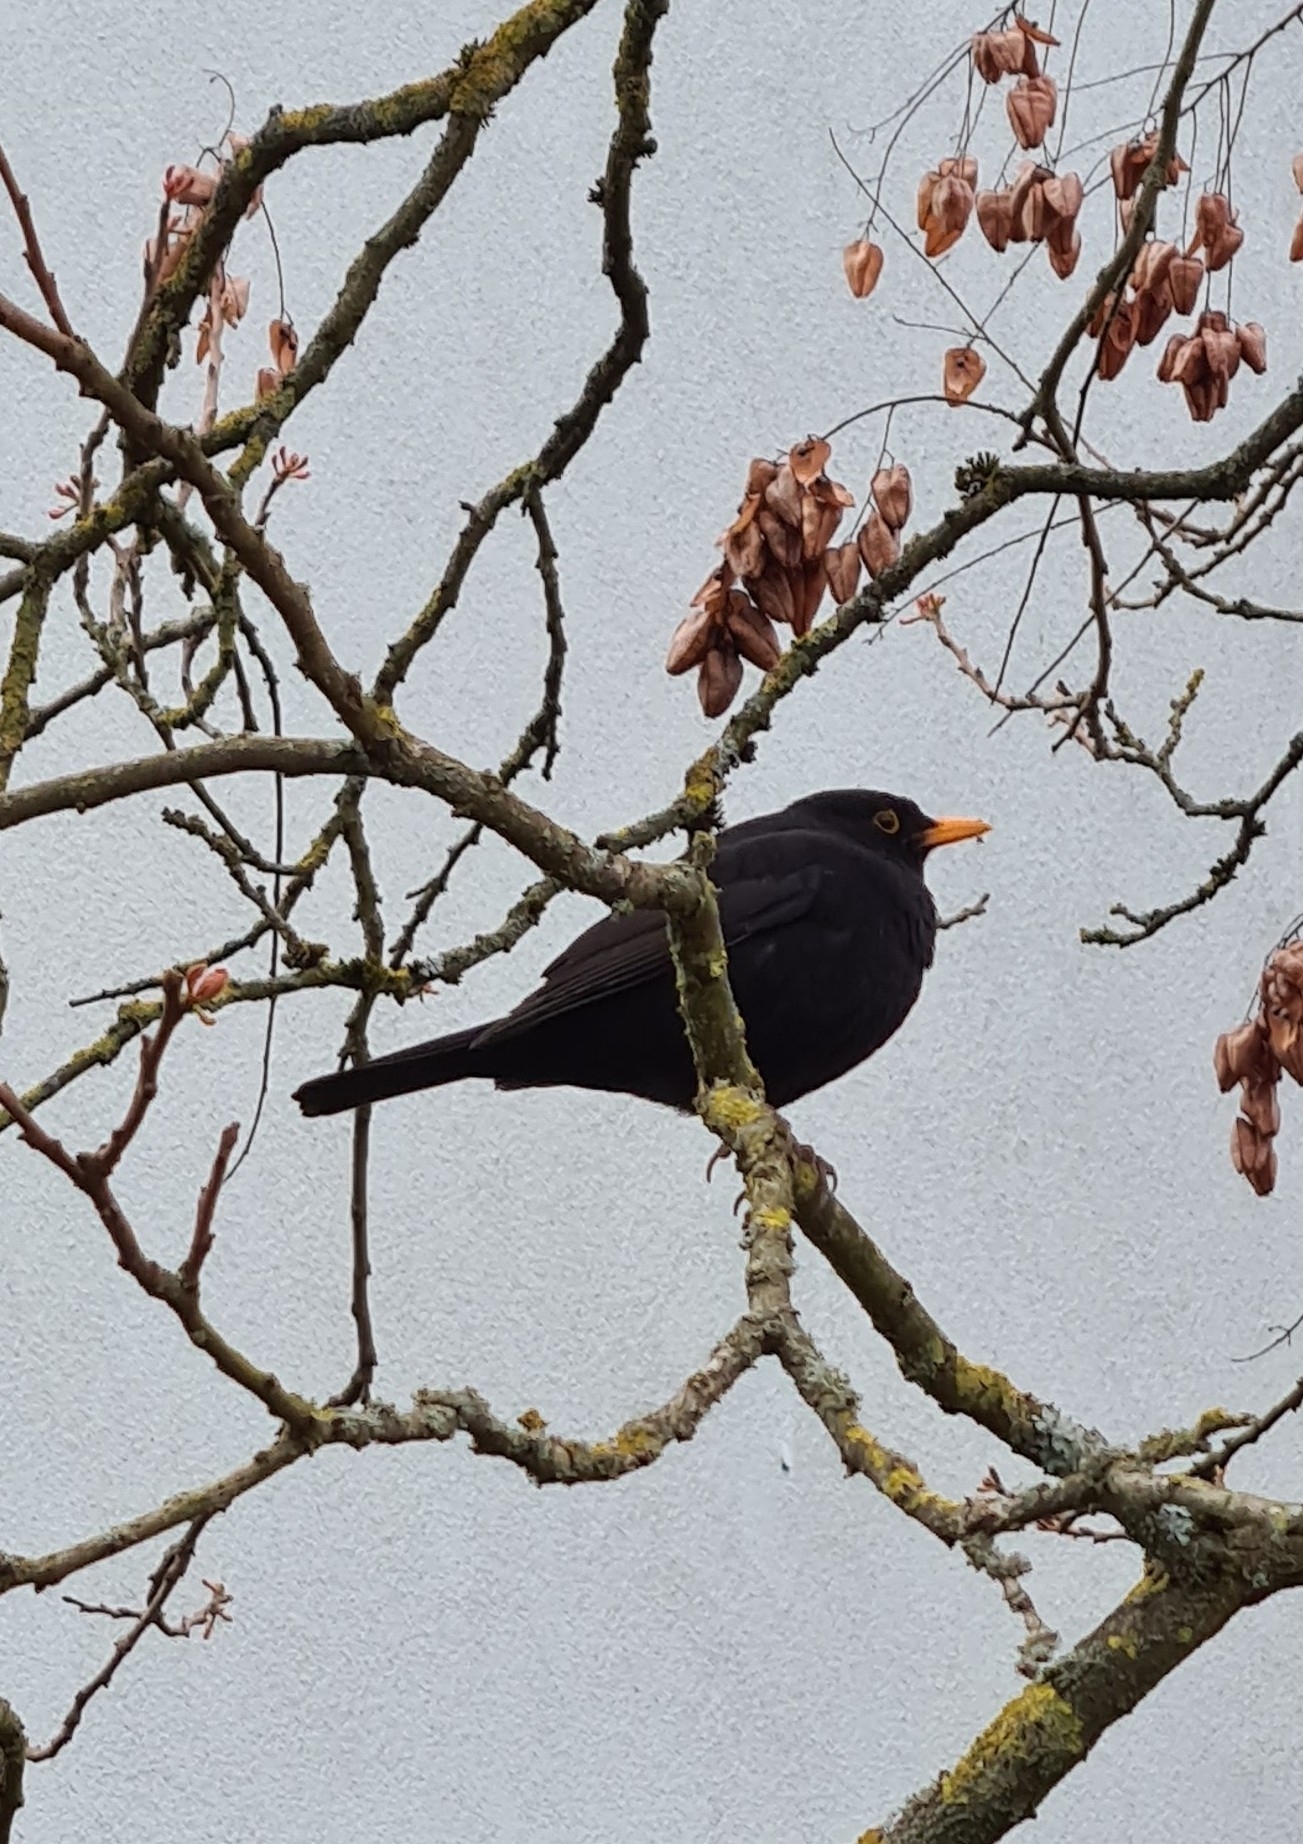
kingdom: Animalia
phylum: Chordata
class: Aves
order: Passeriformes
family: Turdidae
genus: Turdus
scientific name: Turdus merula
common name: Common blackbird
